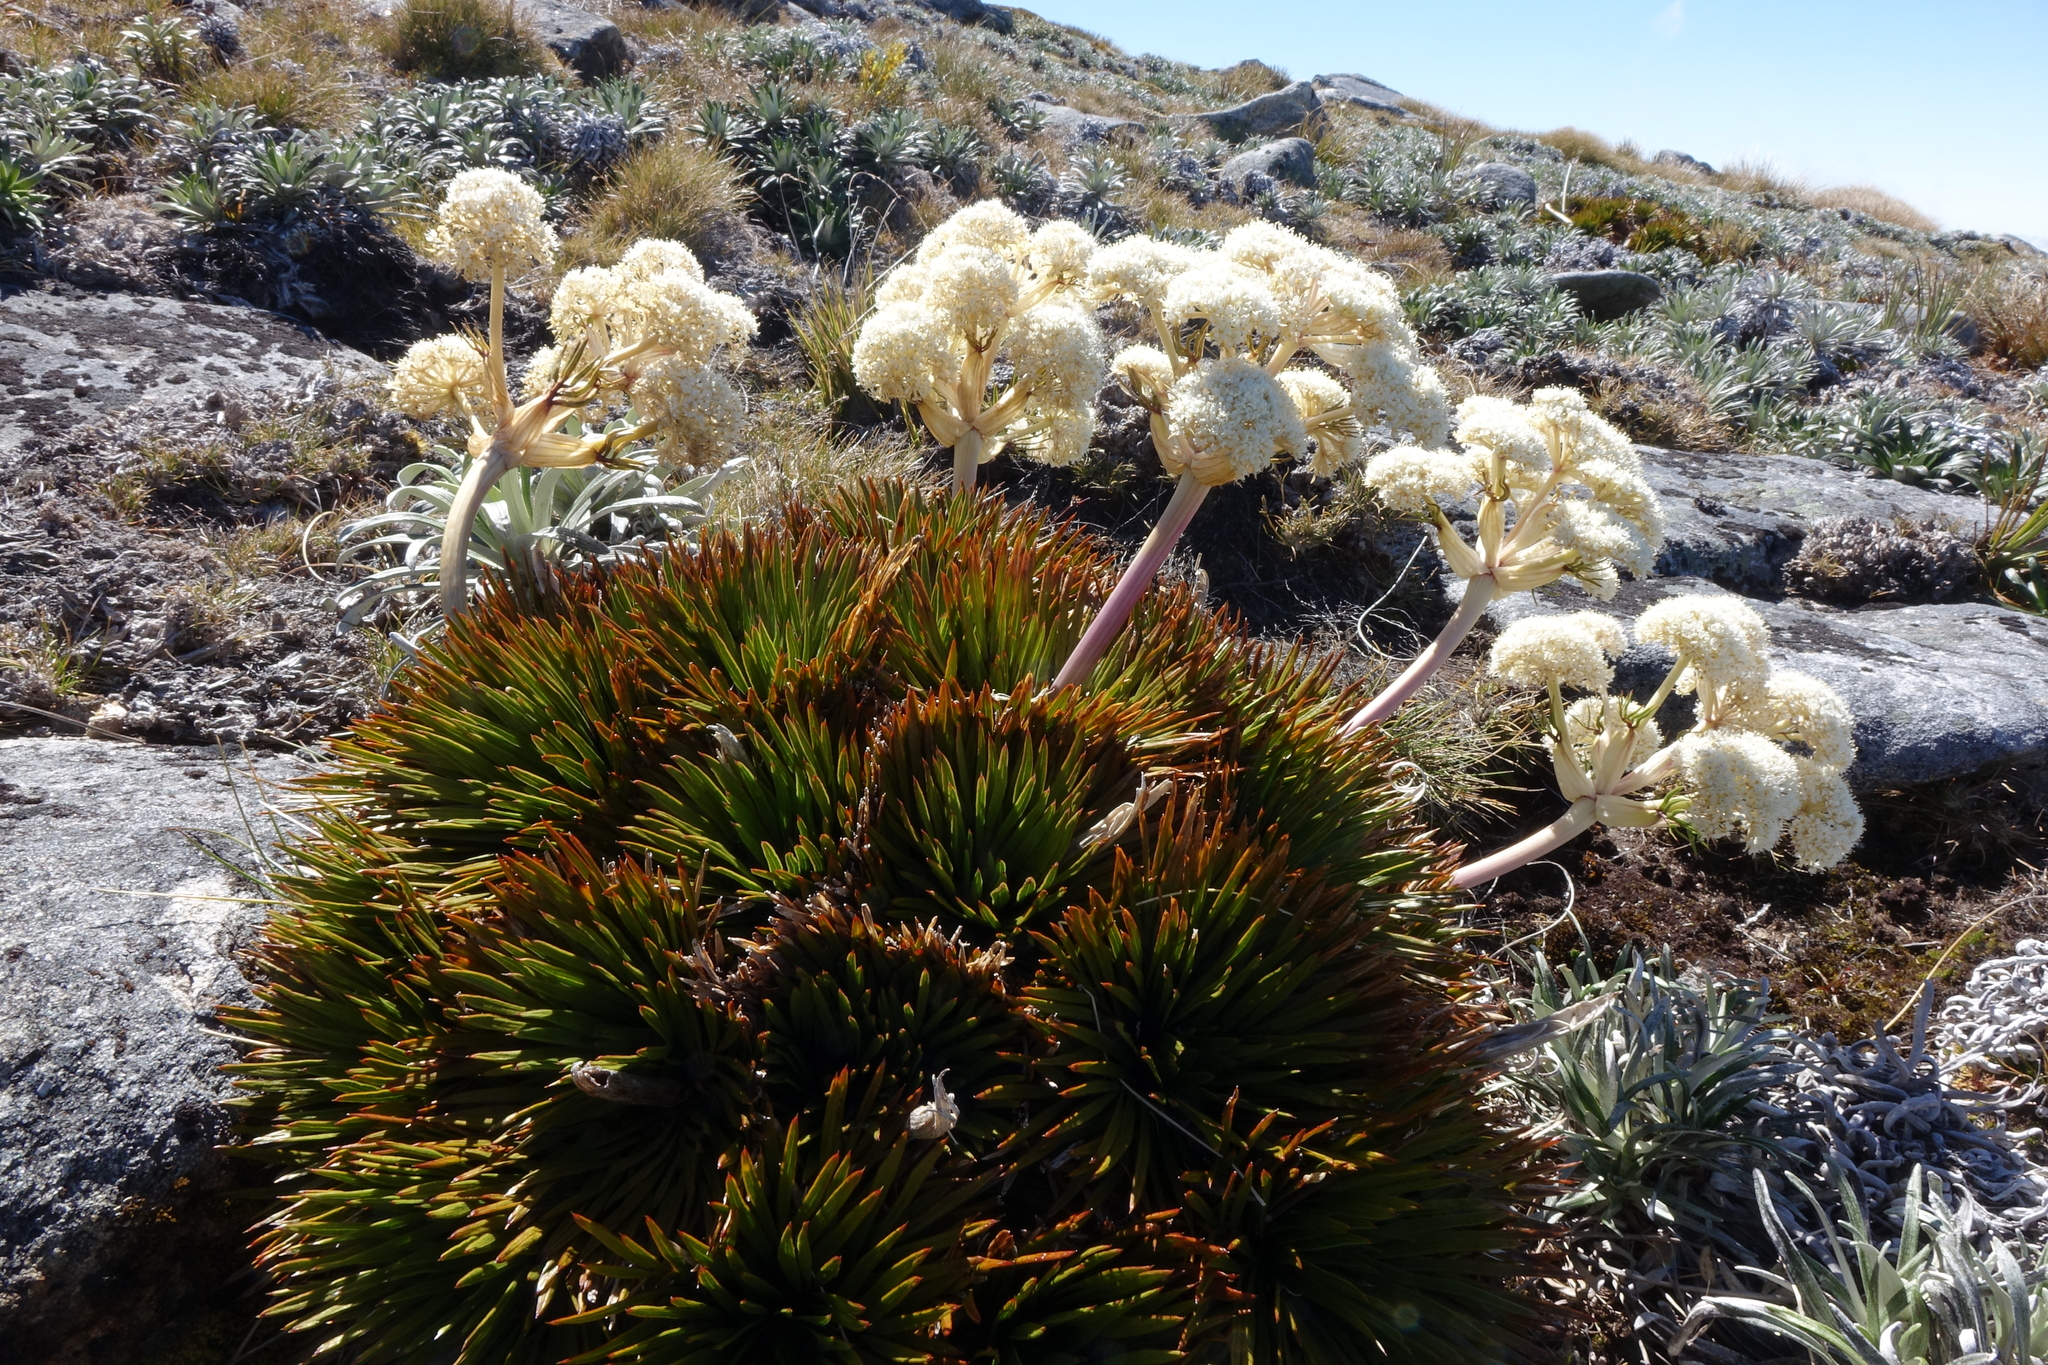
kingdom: Plantae
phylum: Tracheophyta
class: Magnoliopsida
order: Apiales
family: Apiaceae
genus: Aciphylla
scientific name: Aciphylla congesta
